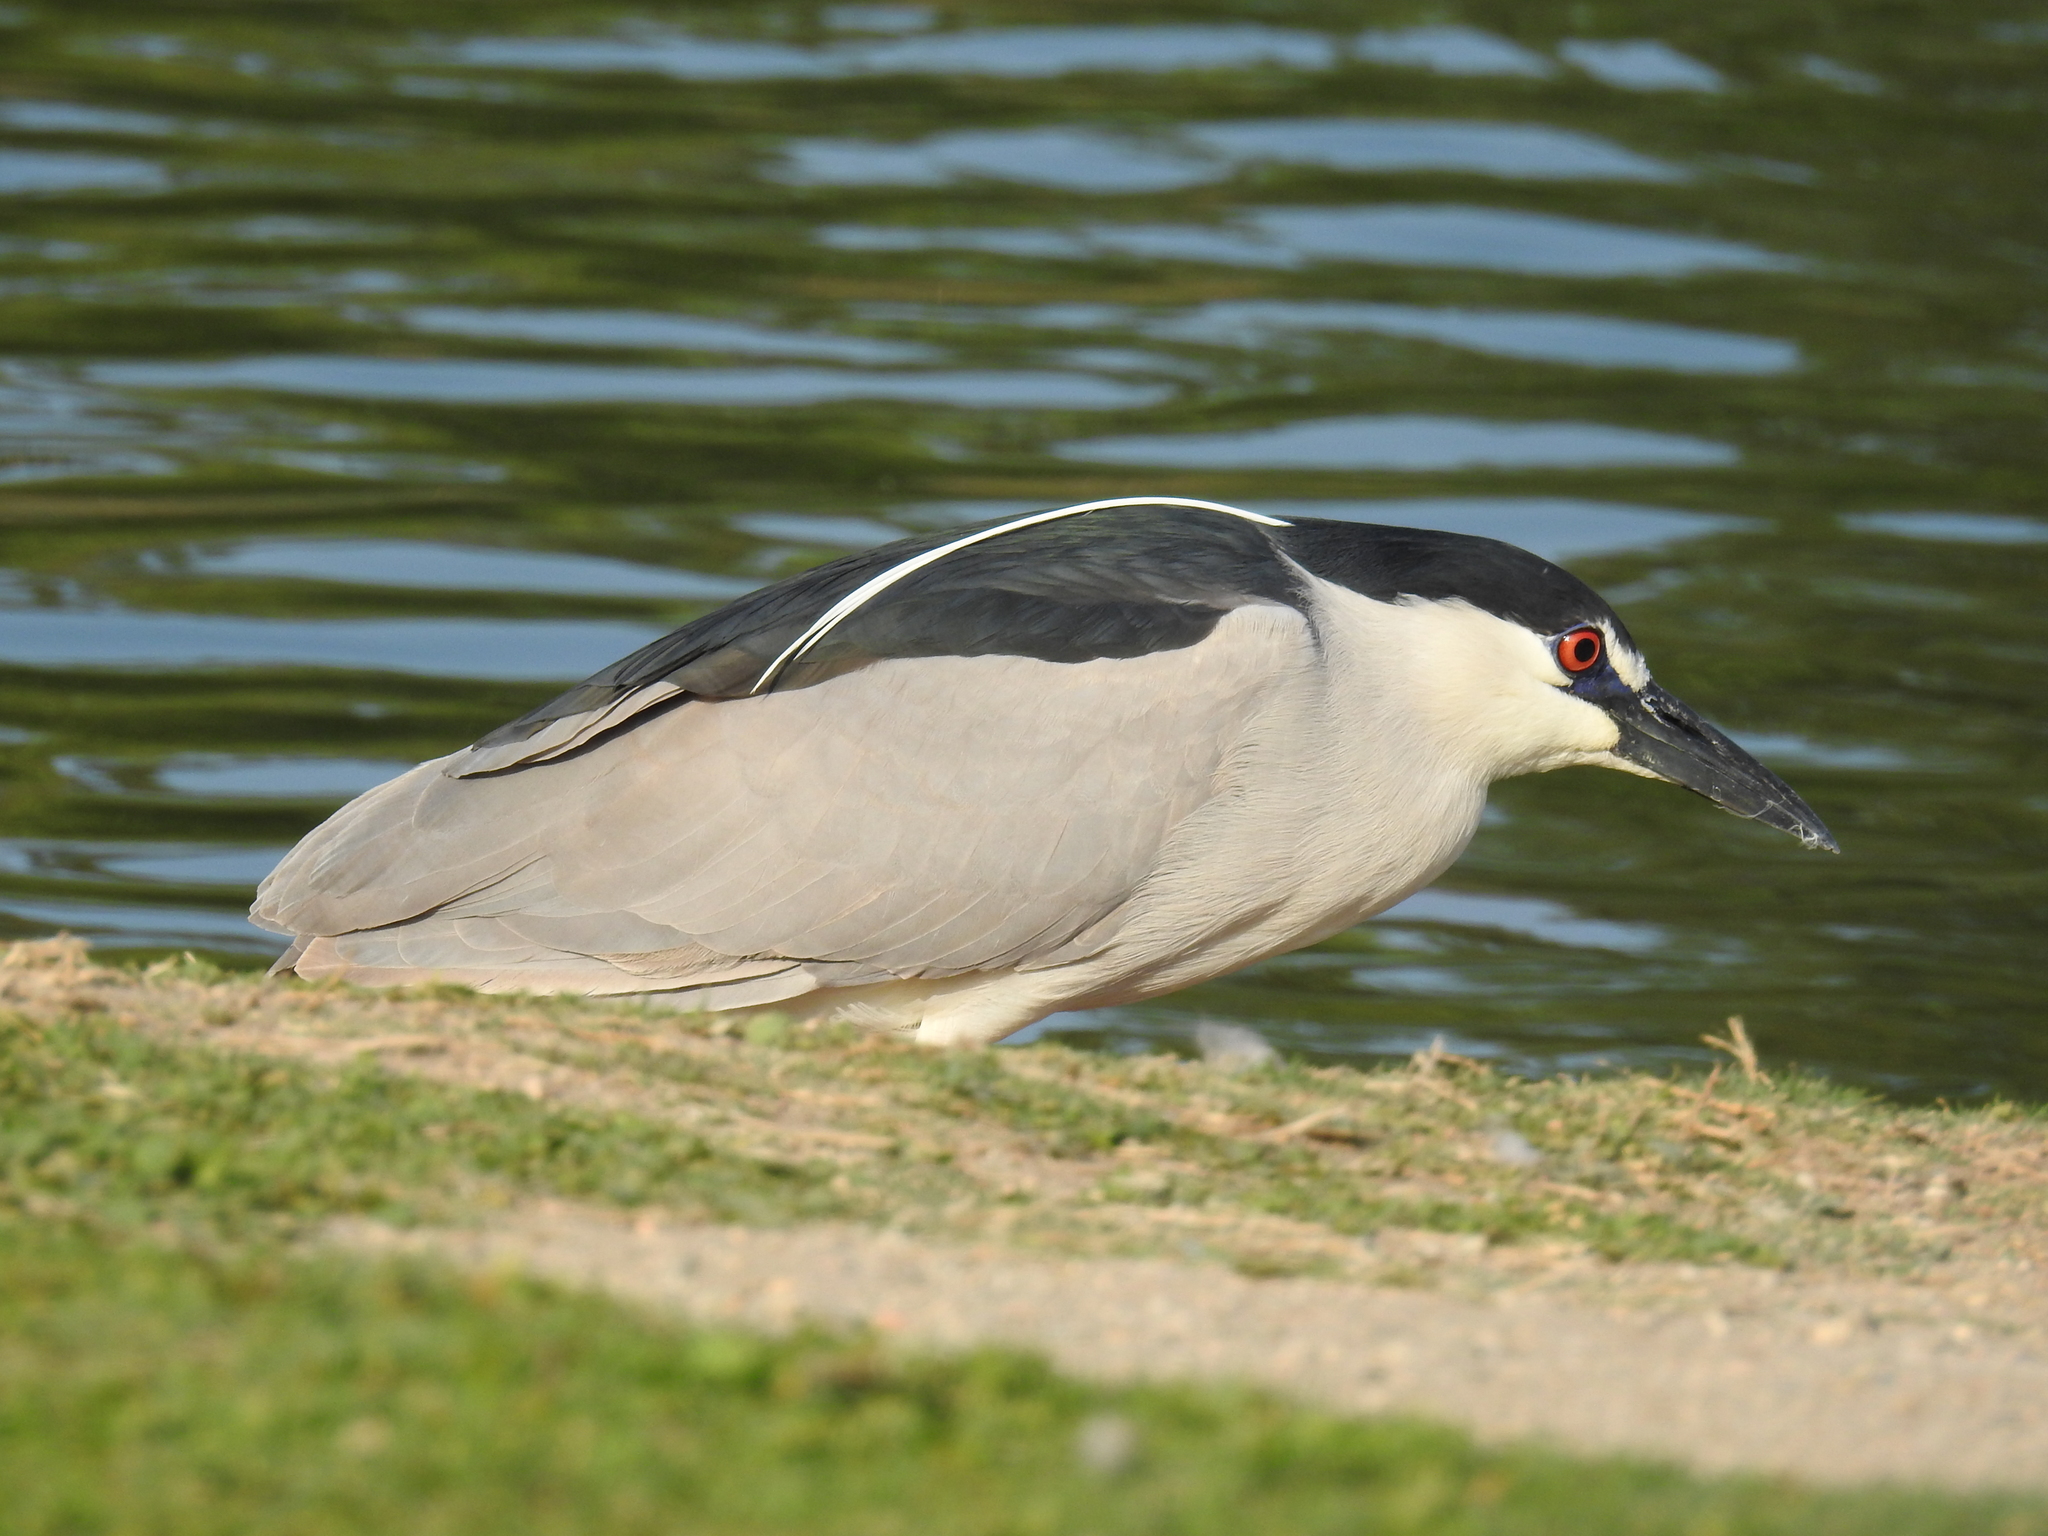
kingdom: Animalia
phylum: Chordata
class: Aves
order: Pelecaniformes
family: Ardeidae
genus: Nycticorax
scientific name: Nycticorax nycticorax
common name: Black-crowned night heron
